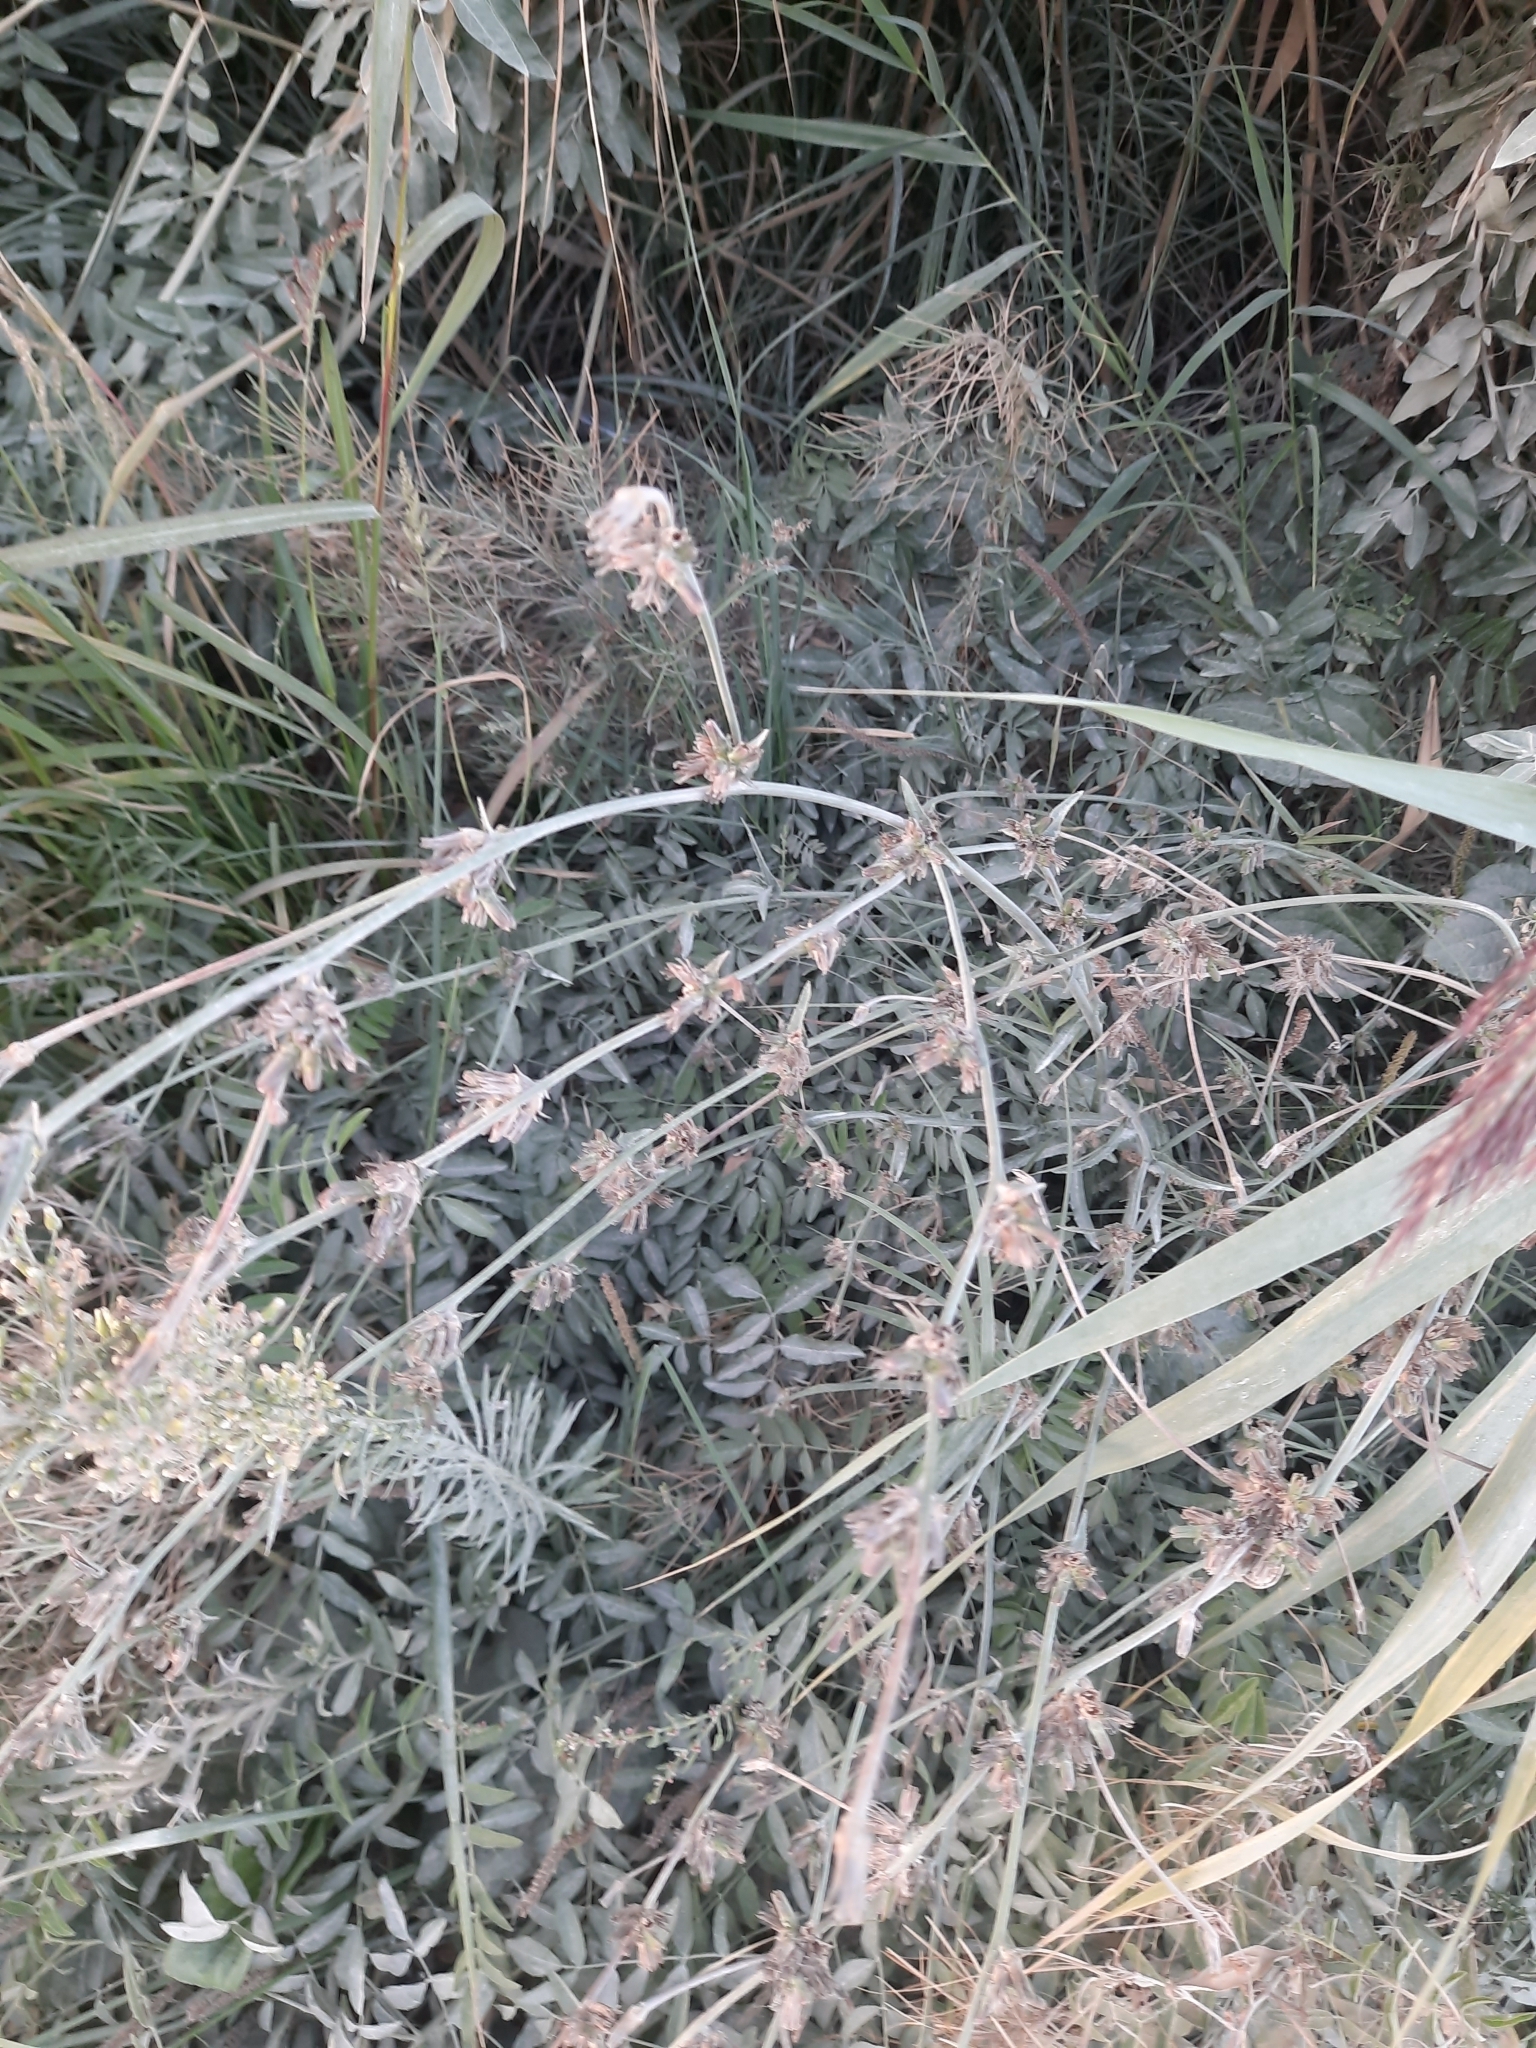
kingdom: Plantae
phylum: Tracheophyta
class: Magnoliopsida
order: Asterales
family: Asteraceae
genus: Cichorium
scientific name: Cichorium intybus
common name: Chicory
